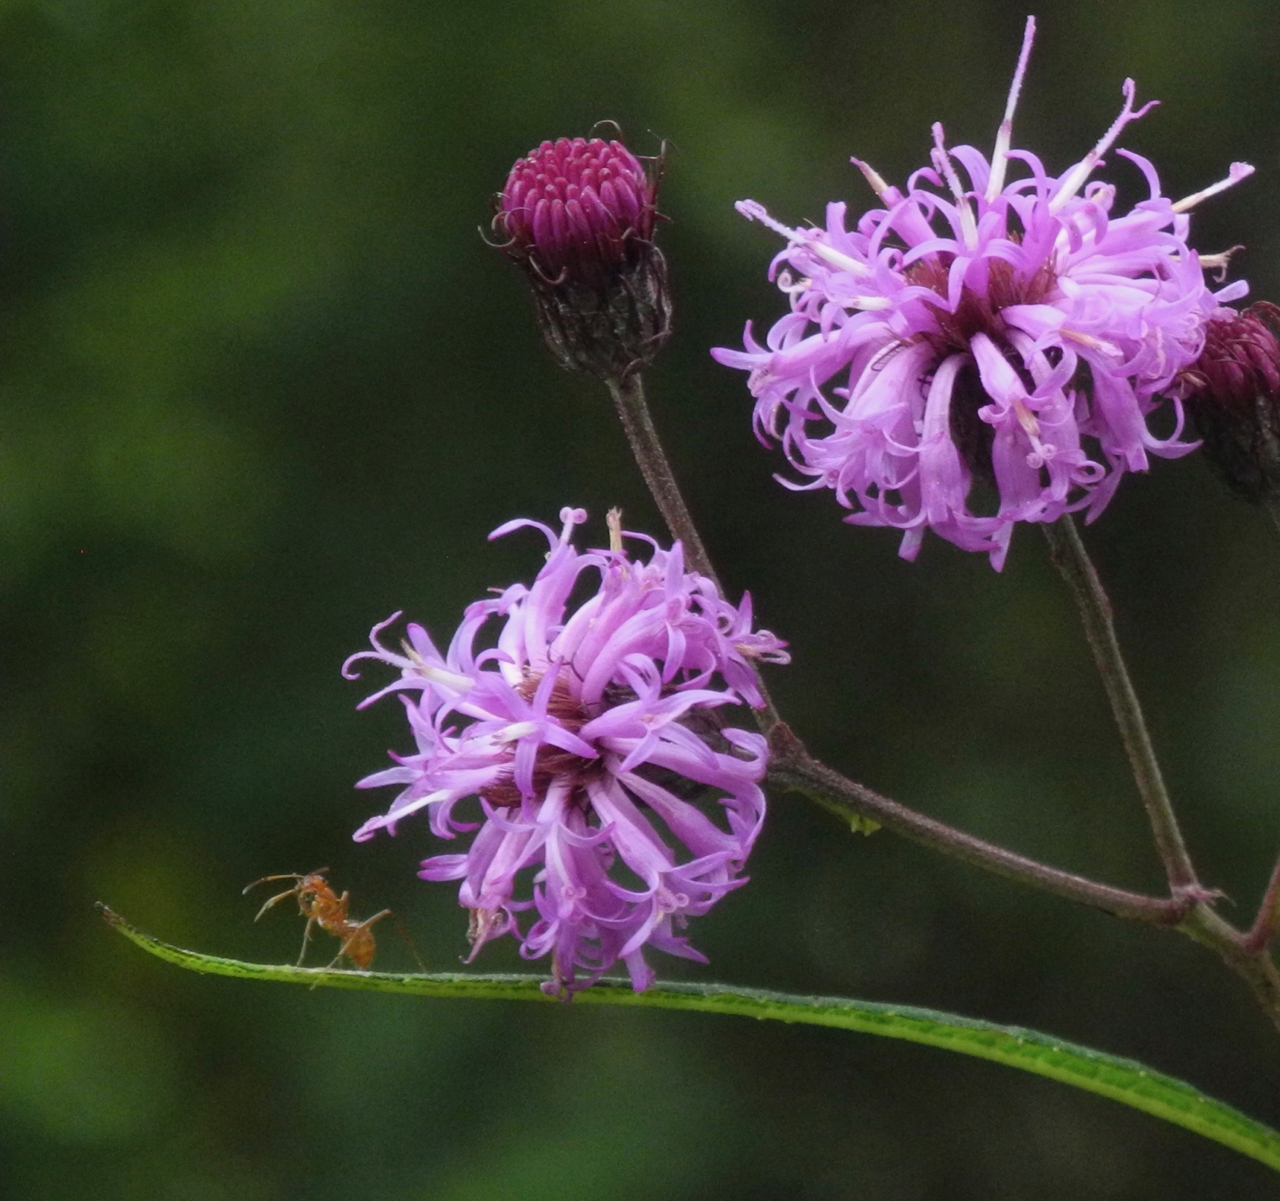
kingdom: Plantae
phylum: Tracheophyta
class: Magnoliopsida
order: Asterales
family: Asteraceae
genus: Vernonia
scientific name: Vernonia noveboracensis
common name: New york ironweed
